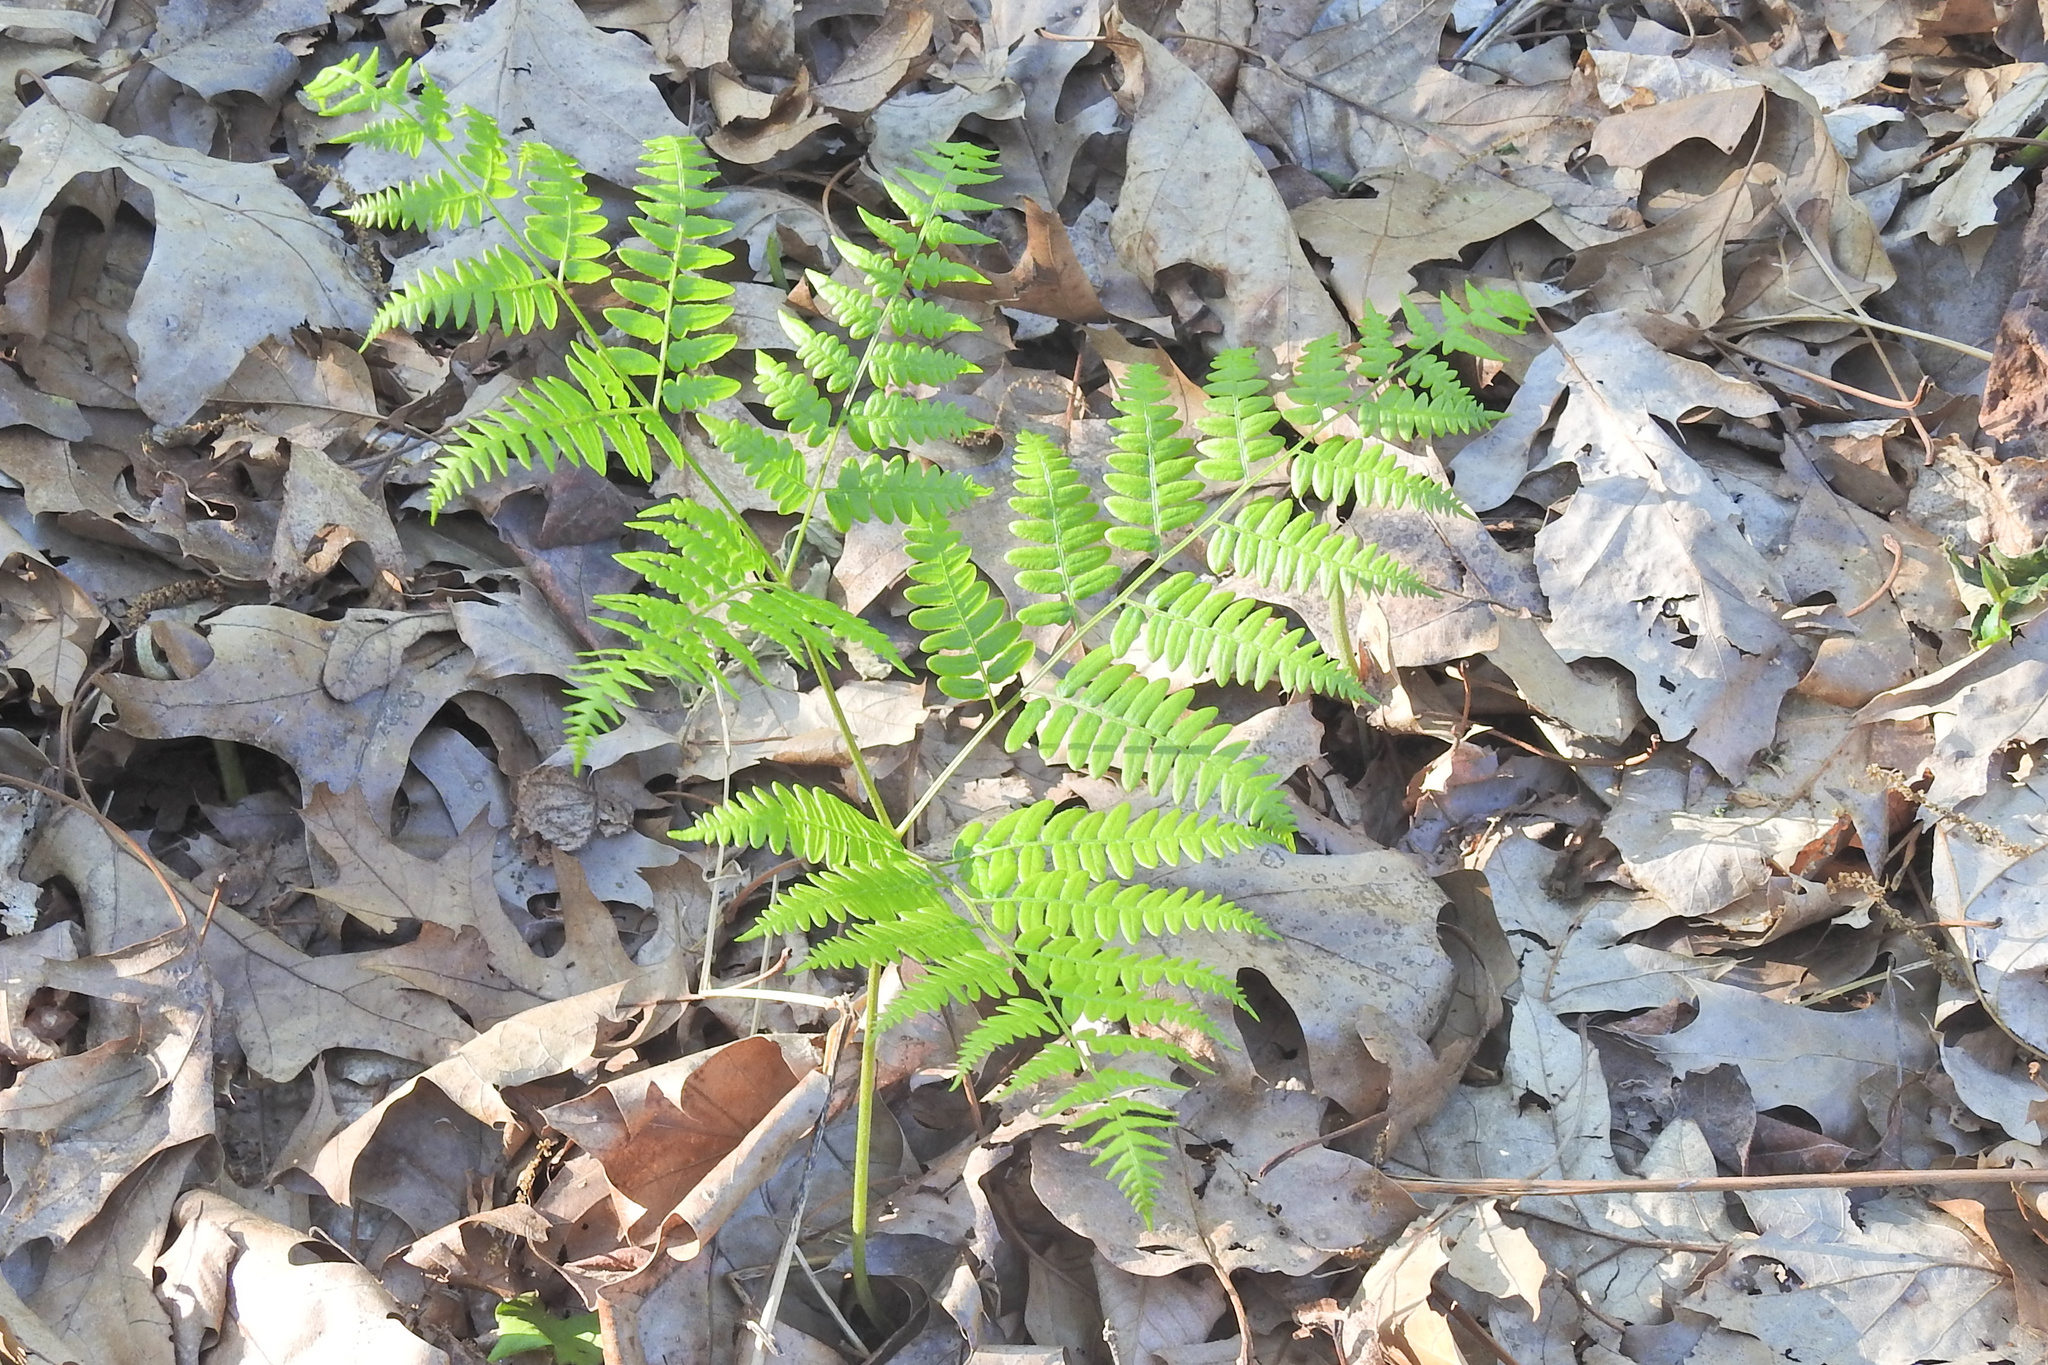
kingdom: Plantae
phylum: Tracheophyta
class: Polypodiopsida
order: Polypodiales
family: Dennstaedtiaceae
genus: Pteridium
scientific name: Pteridium aquilinum
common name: Bracken
